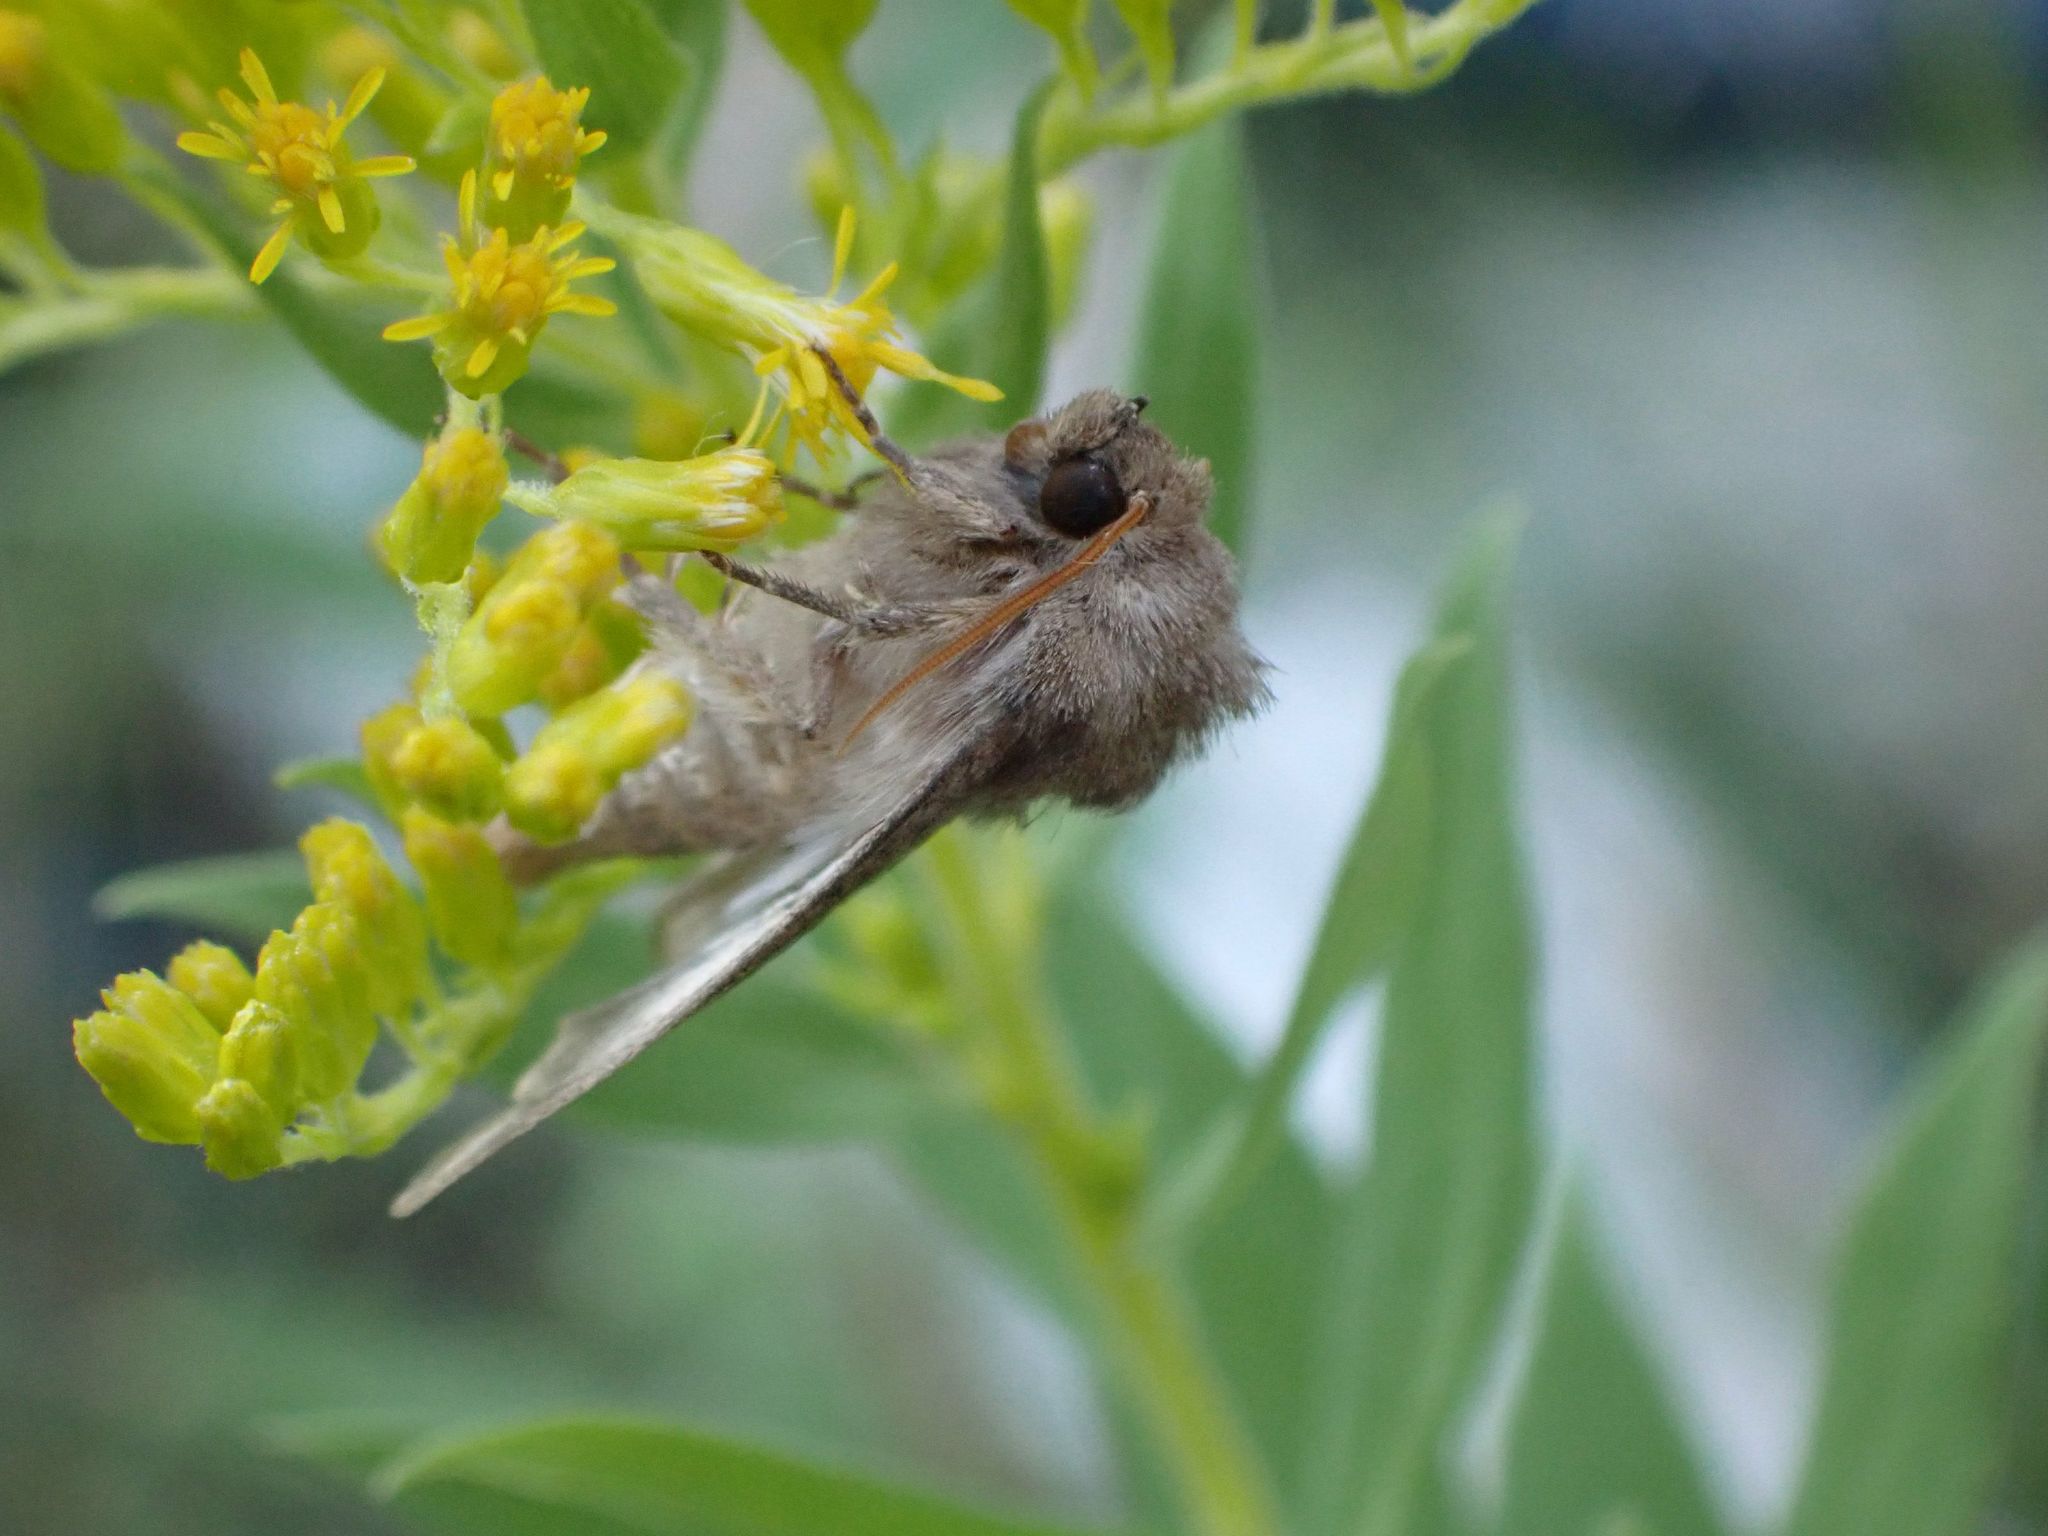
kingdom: Animalia
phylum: Arthropoda
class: Insecta
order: Lepidoptera
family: Noctuidae
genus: Nephelodes
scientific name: Nephelodes minians
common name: Bronzed cutworm
